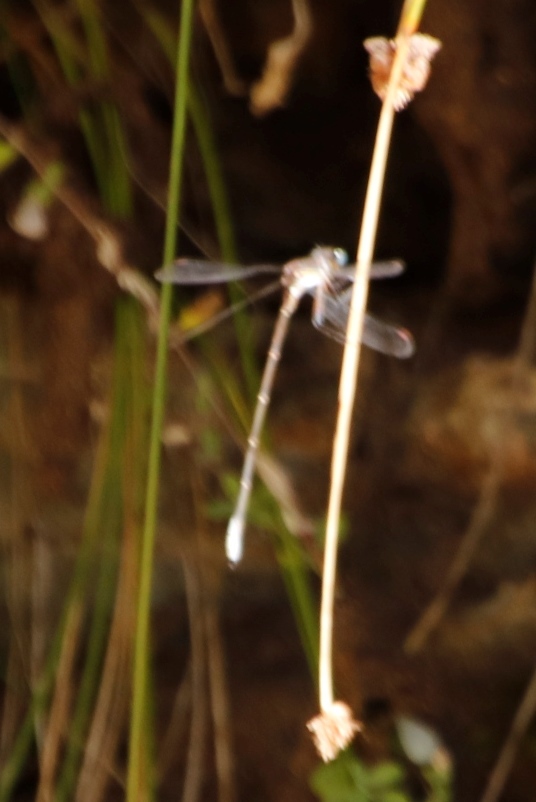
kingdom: Animalia
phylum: Arthropoda
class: Insecta
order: Odonata
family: Synlestidae
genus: Chlorolestes
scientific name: Chlorolestes conspicuus
